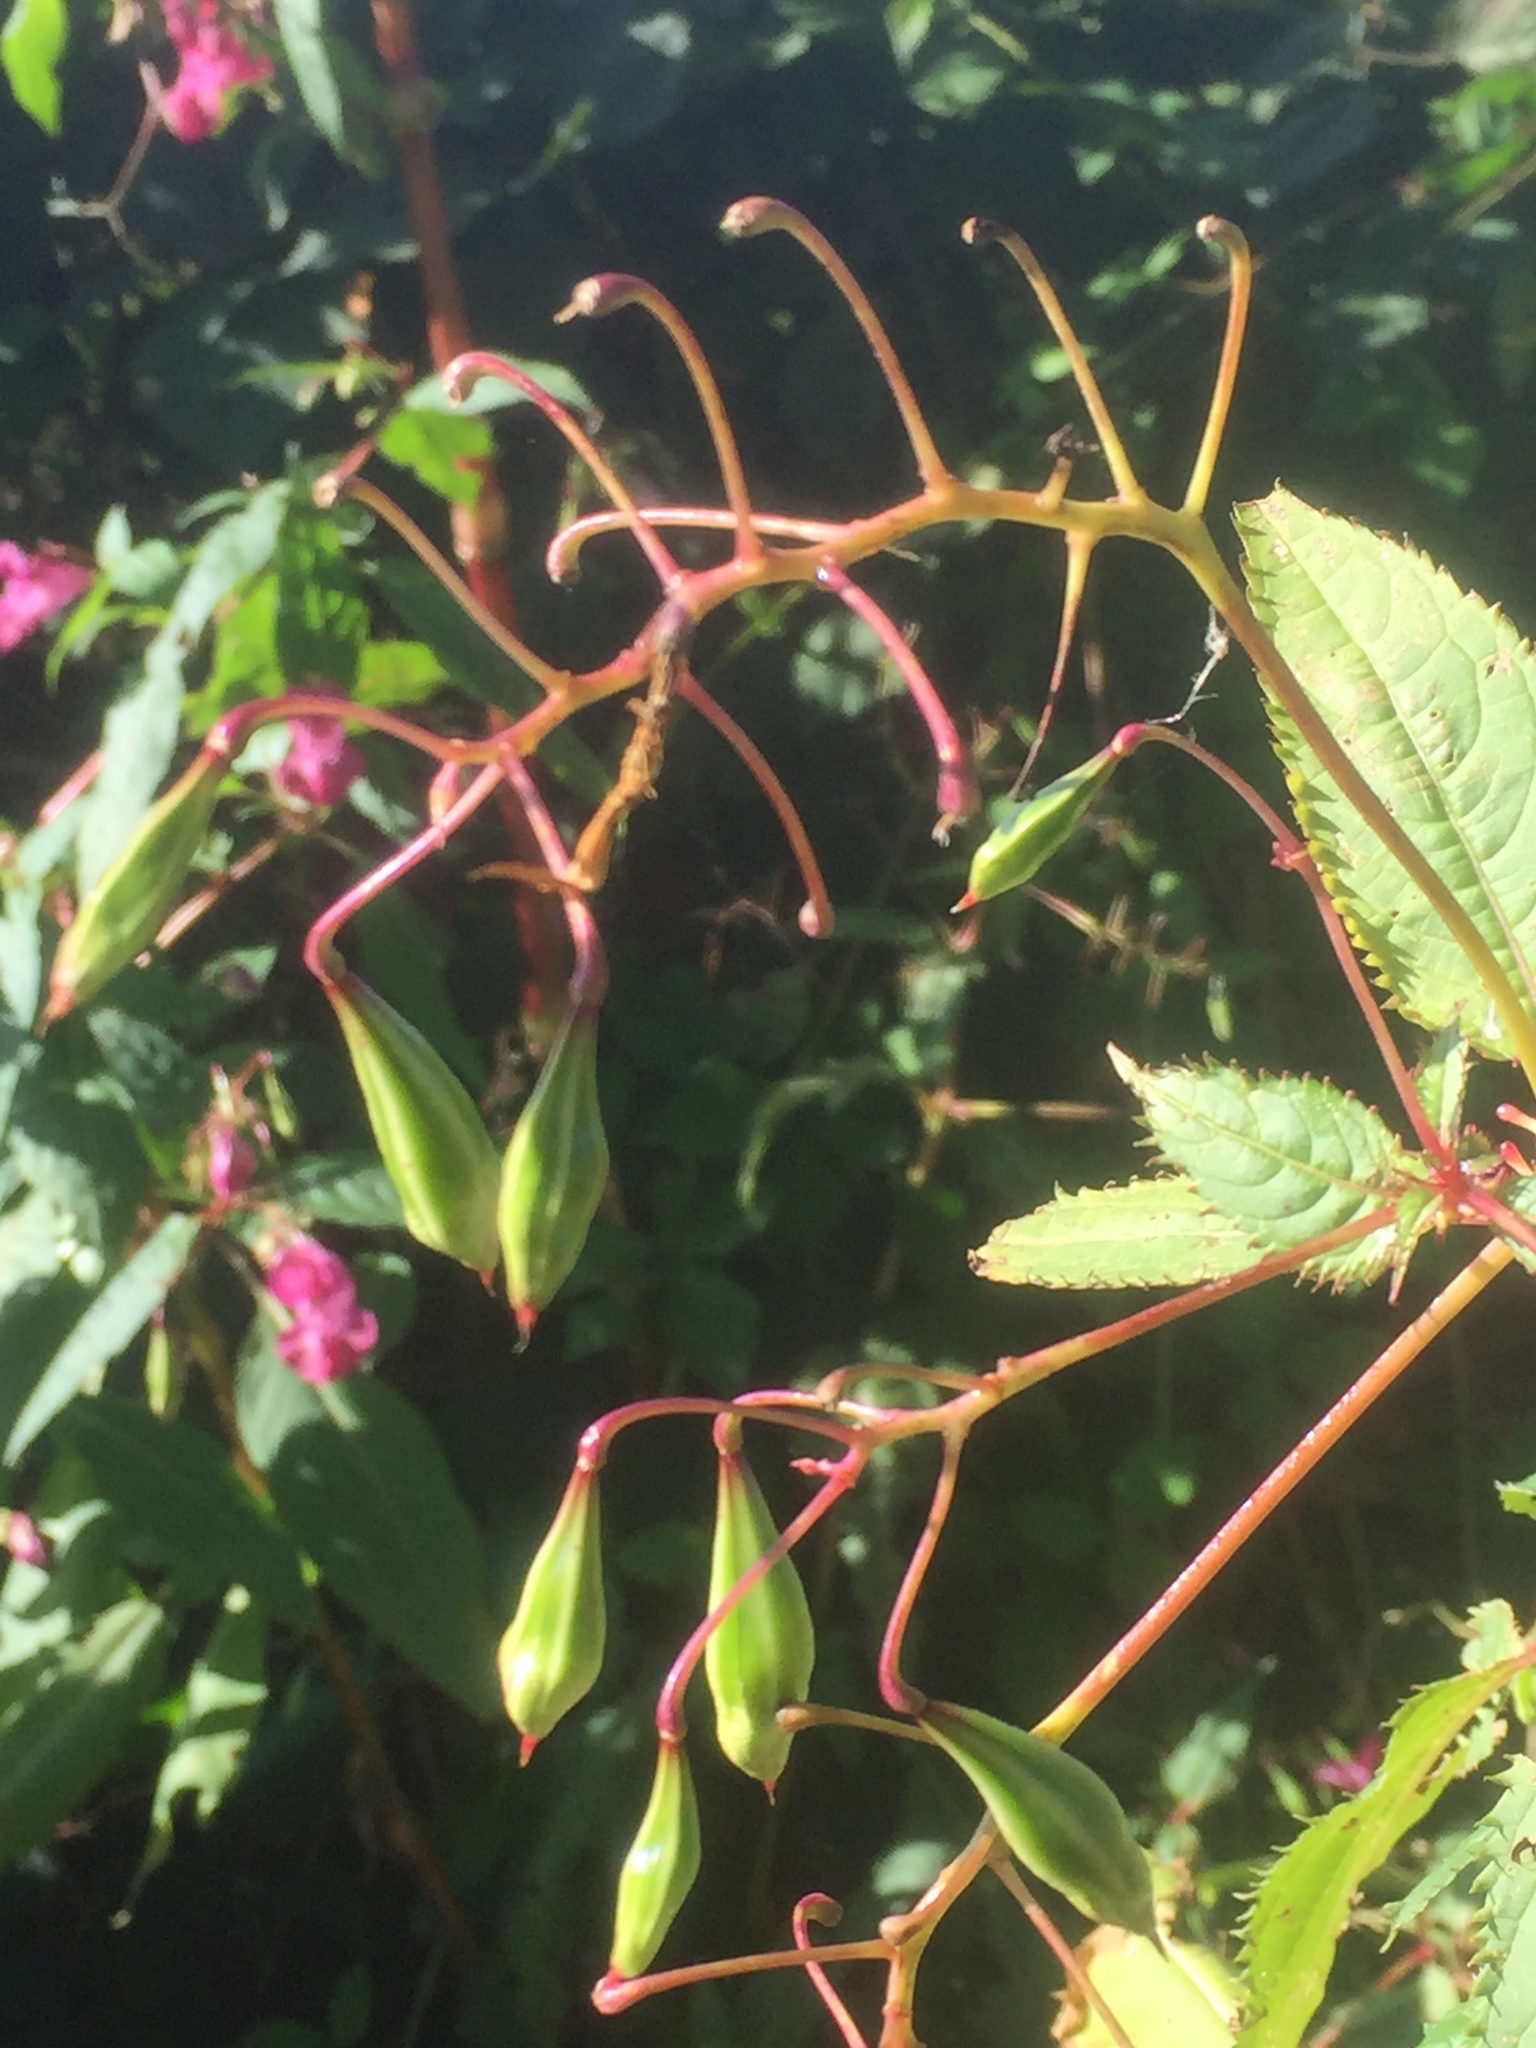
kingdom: Plantae
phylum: Tracheophyta
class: Magnoliopsida
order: Ericales
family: Balsaminaceae
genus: Impatiens
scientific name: Impatiens glandulifera
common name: Himalayan balsam
